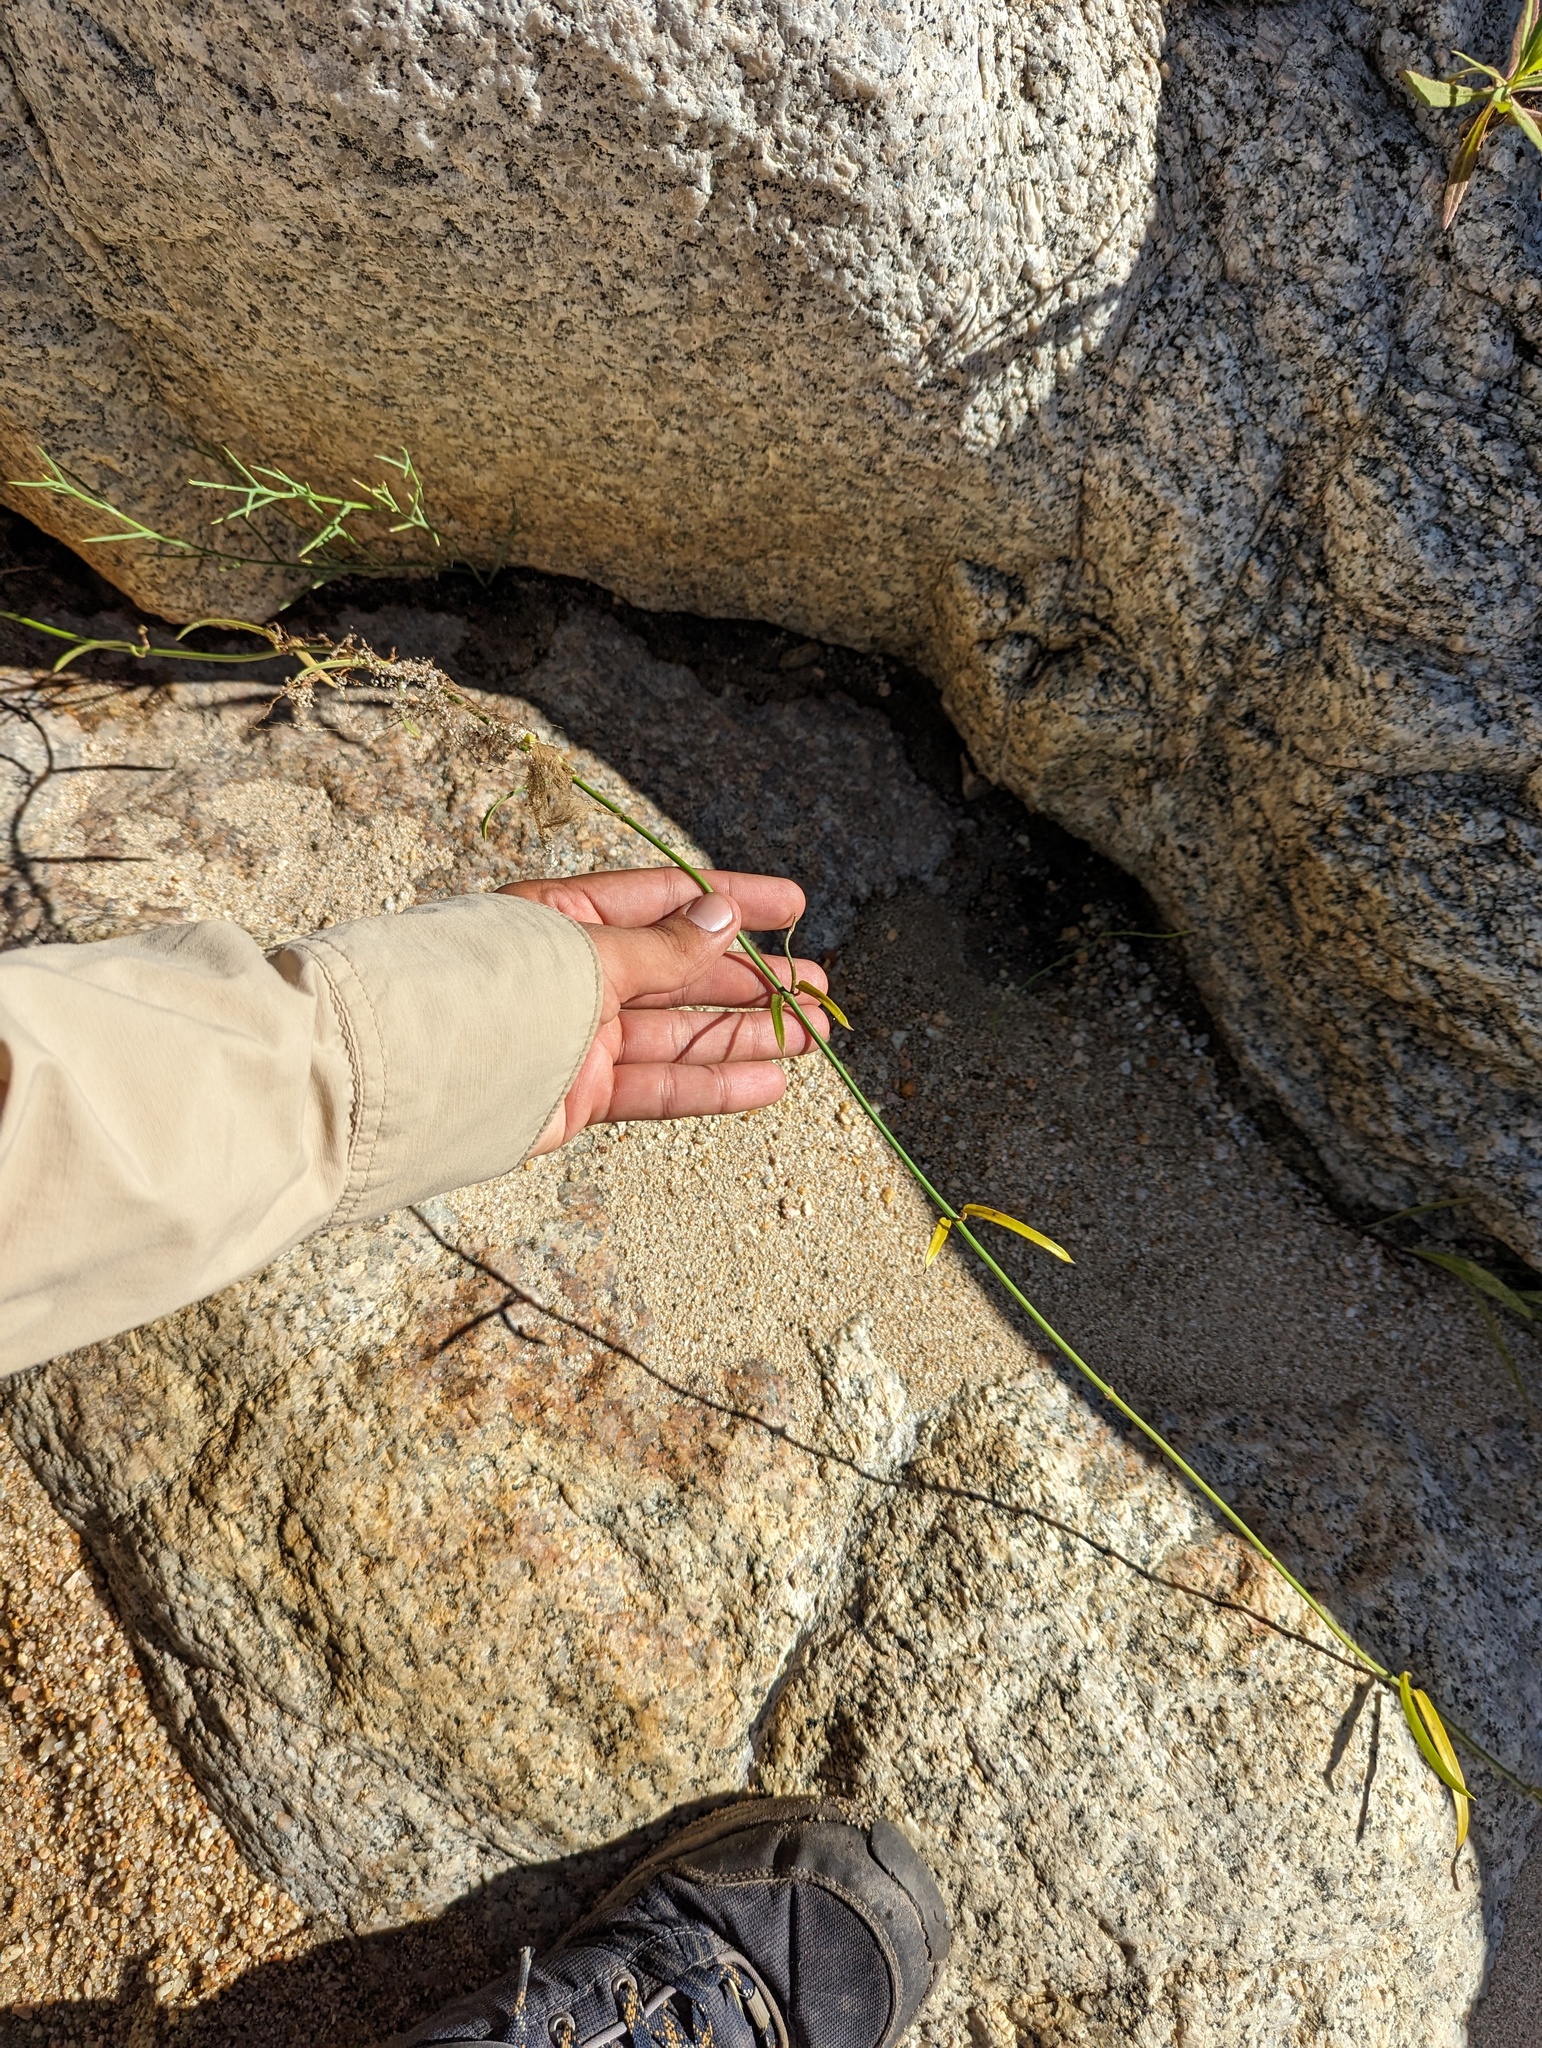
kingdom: Plantae
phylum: Tracheophyta
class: Magnoliopsida
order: Gentianales
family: Apocynaceae
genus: Funastrum
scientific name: Funastrum clausum
